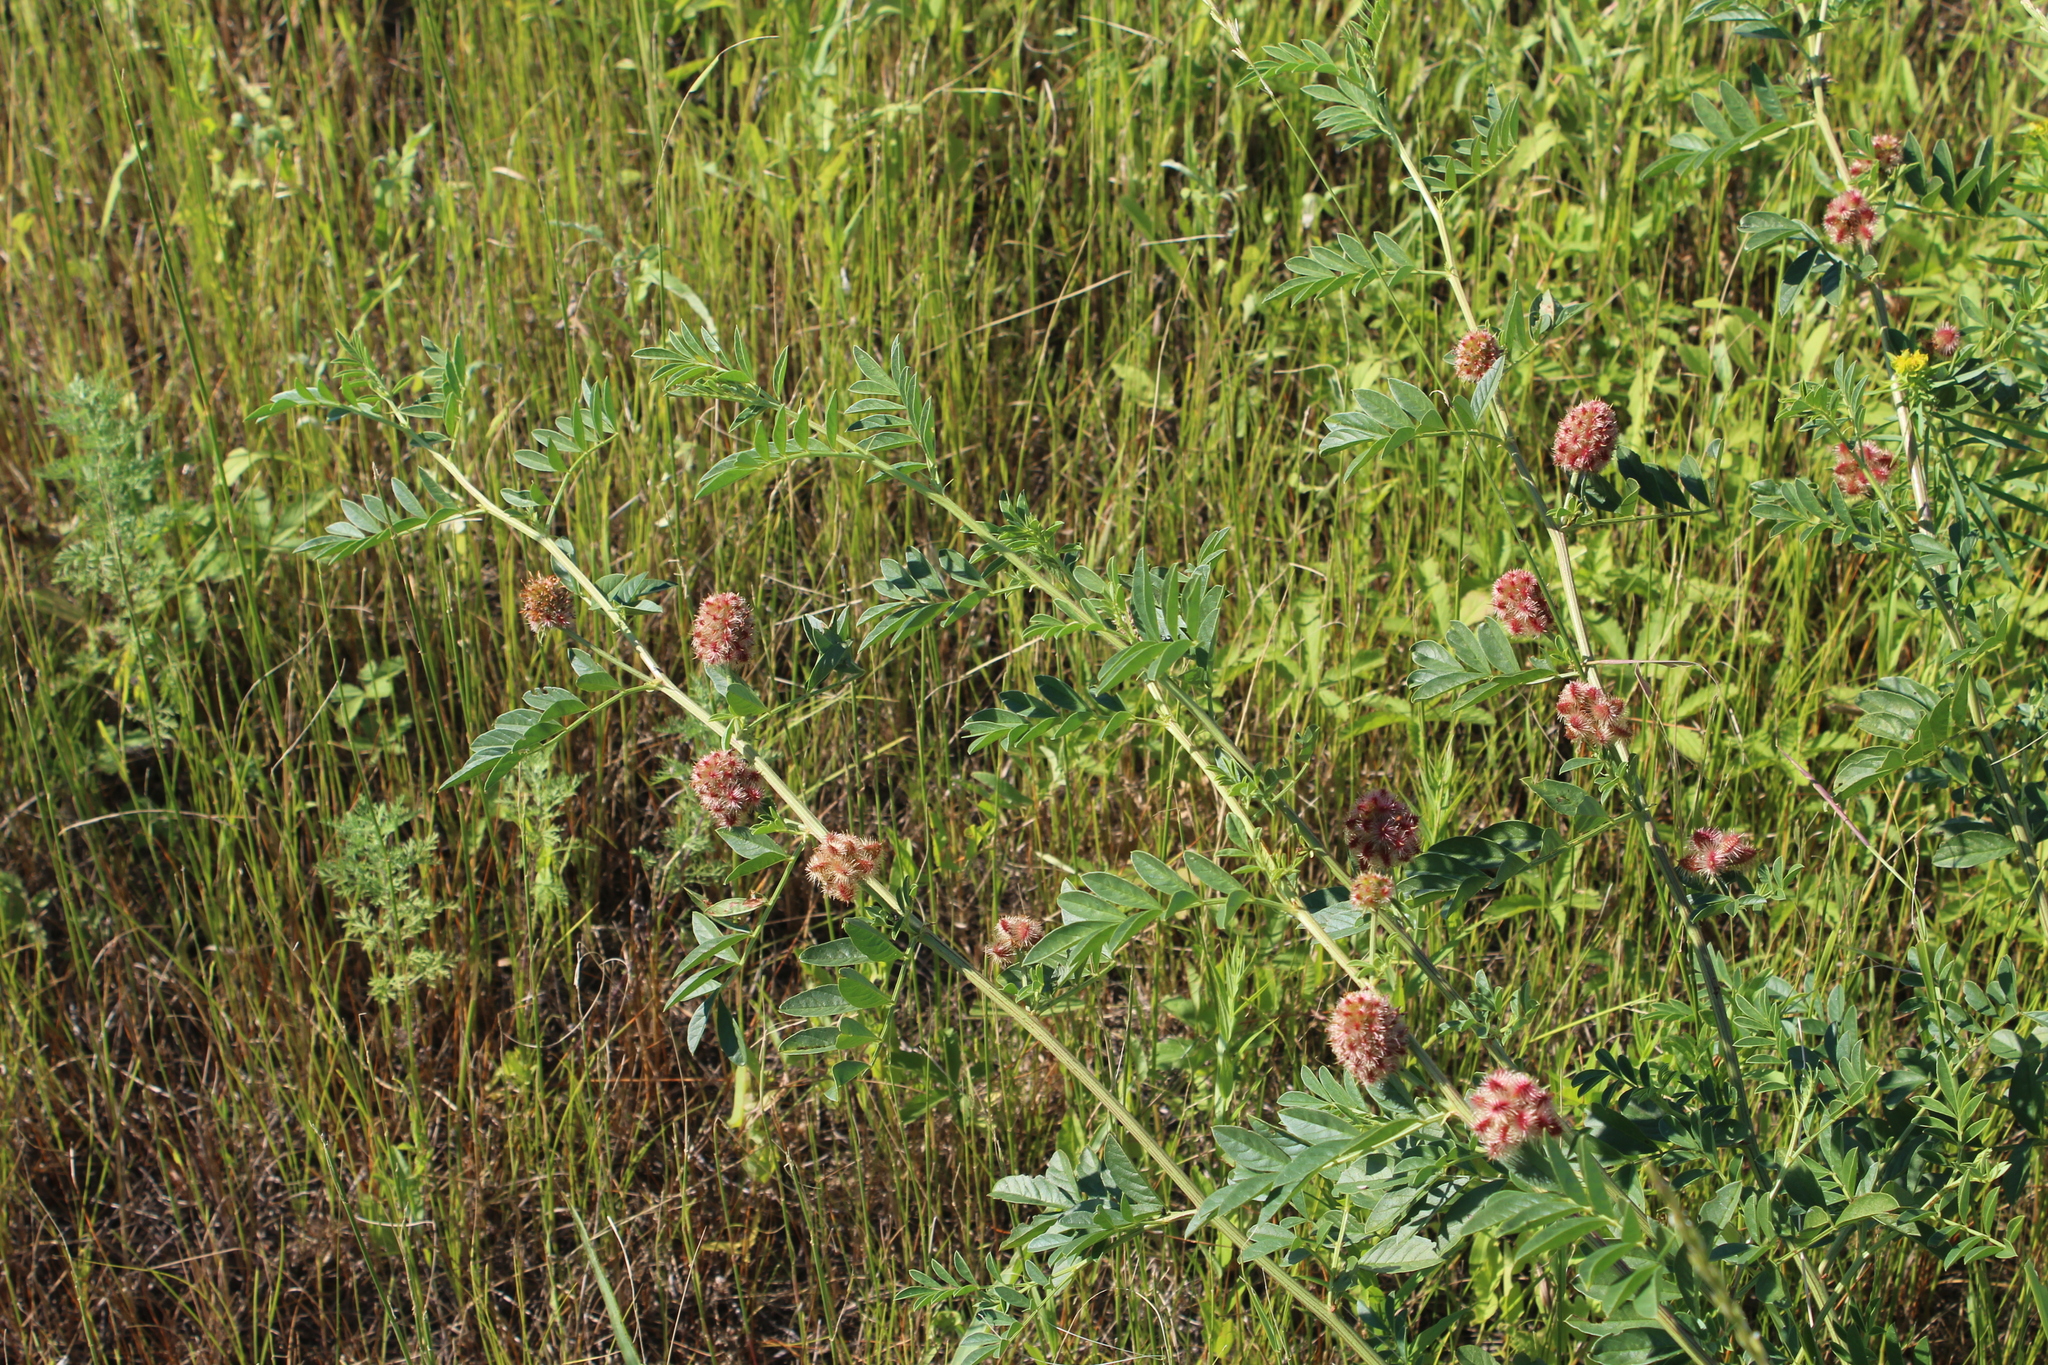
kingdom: Plantae
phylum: Tracheophyta
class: Magnoliopsida
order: Fabales
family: Fabaceae
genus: Glycyrrhiza
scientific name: Glycyrrhiza echinata
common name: German liquorice
